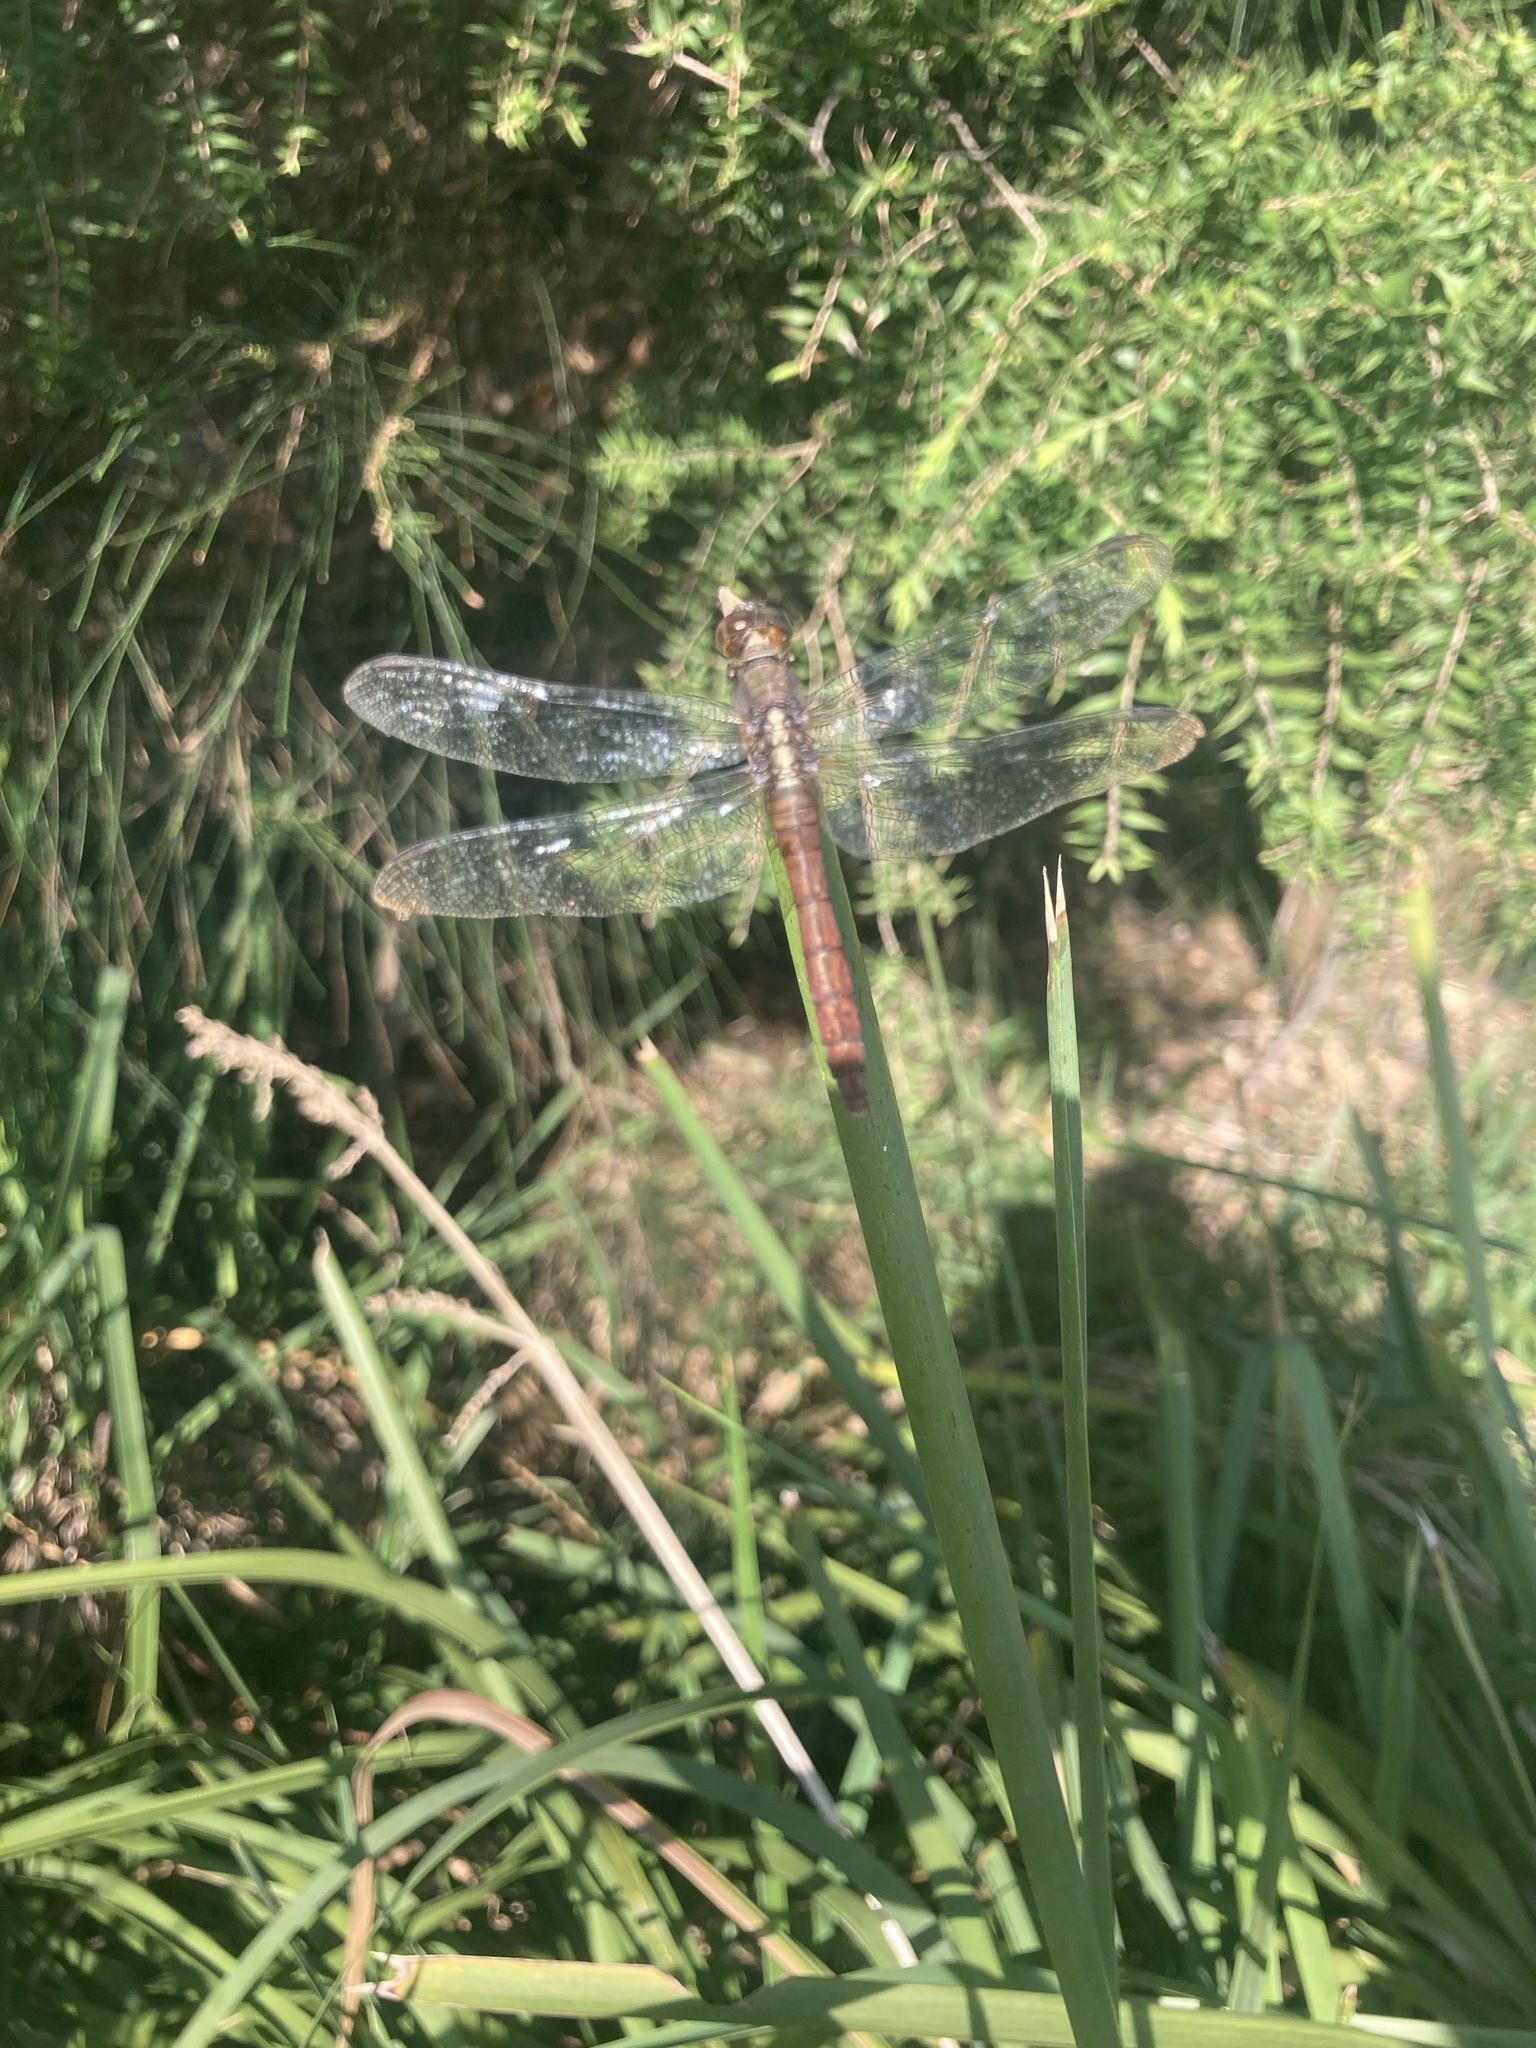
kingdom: Animalia
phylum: Arthropoda
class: Insecta
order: Odonata
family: Libellulidae
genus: Orthetrum
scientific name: Orthetrum villosovittatum
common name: Firery skimmer
